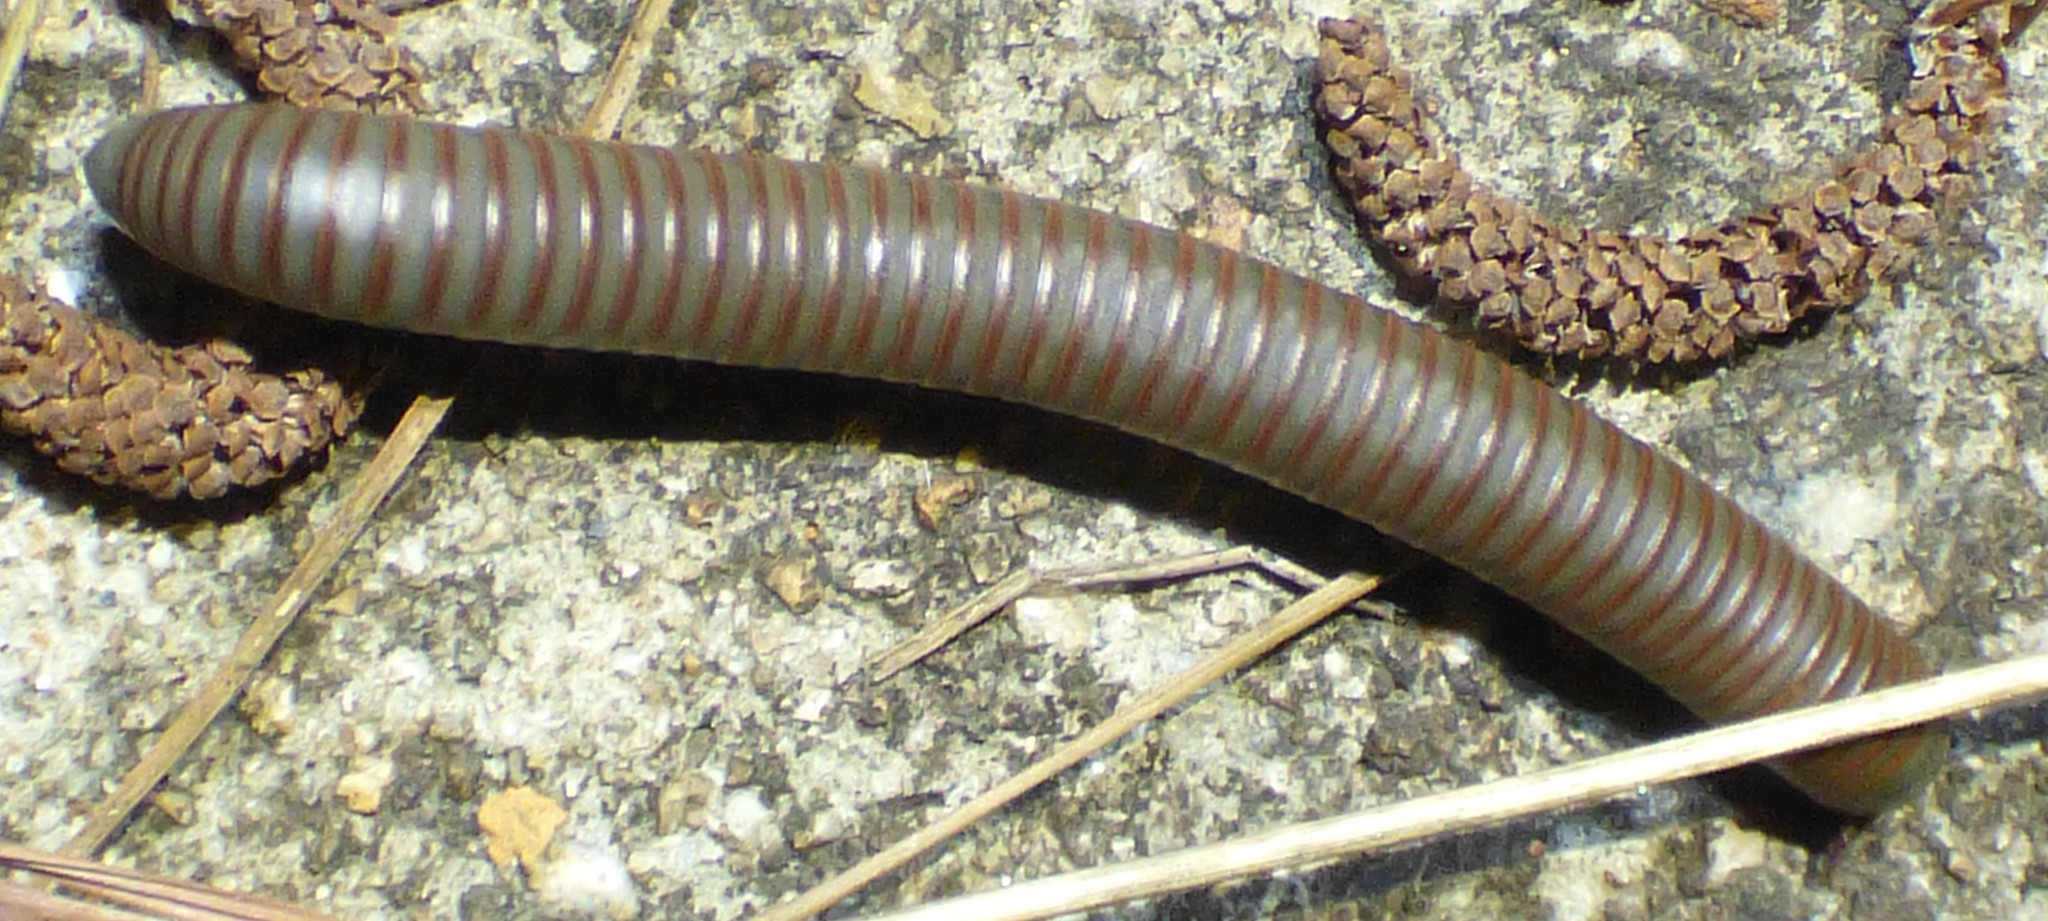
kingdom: Animalia
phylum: Arthropoda
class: Diplopoda
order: Spirobolida
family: Spirobolidae
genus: Narceus
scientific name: Narceus
